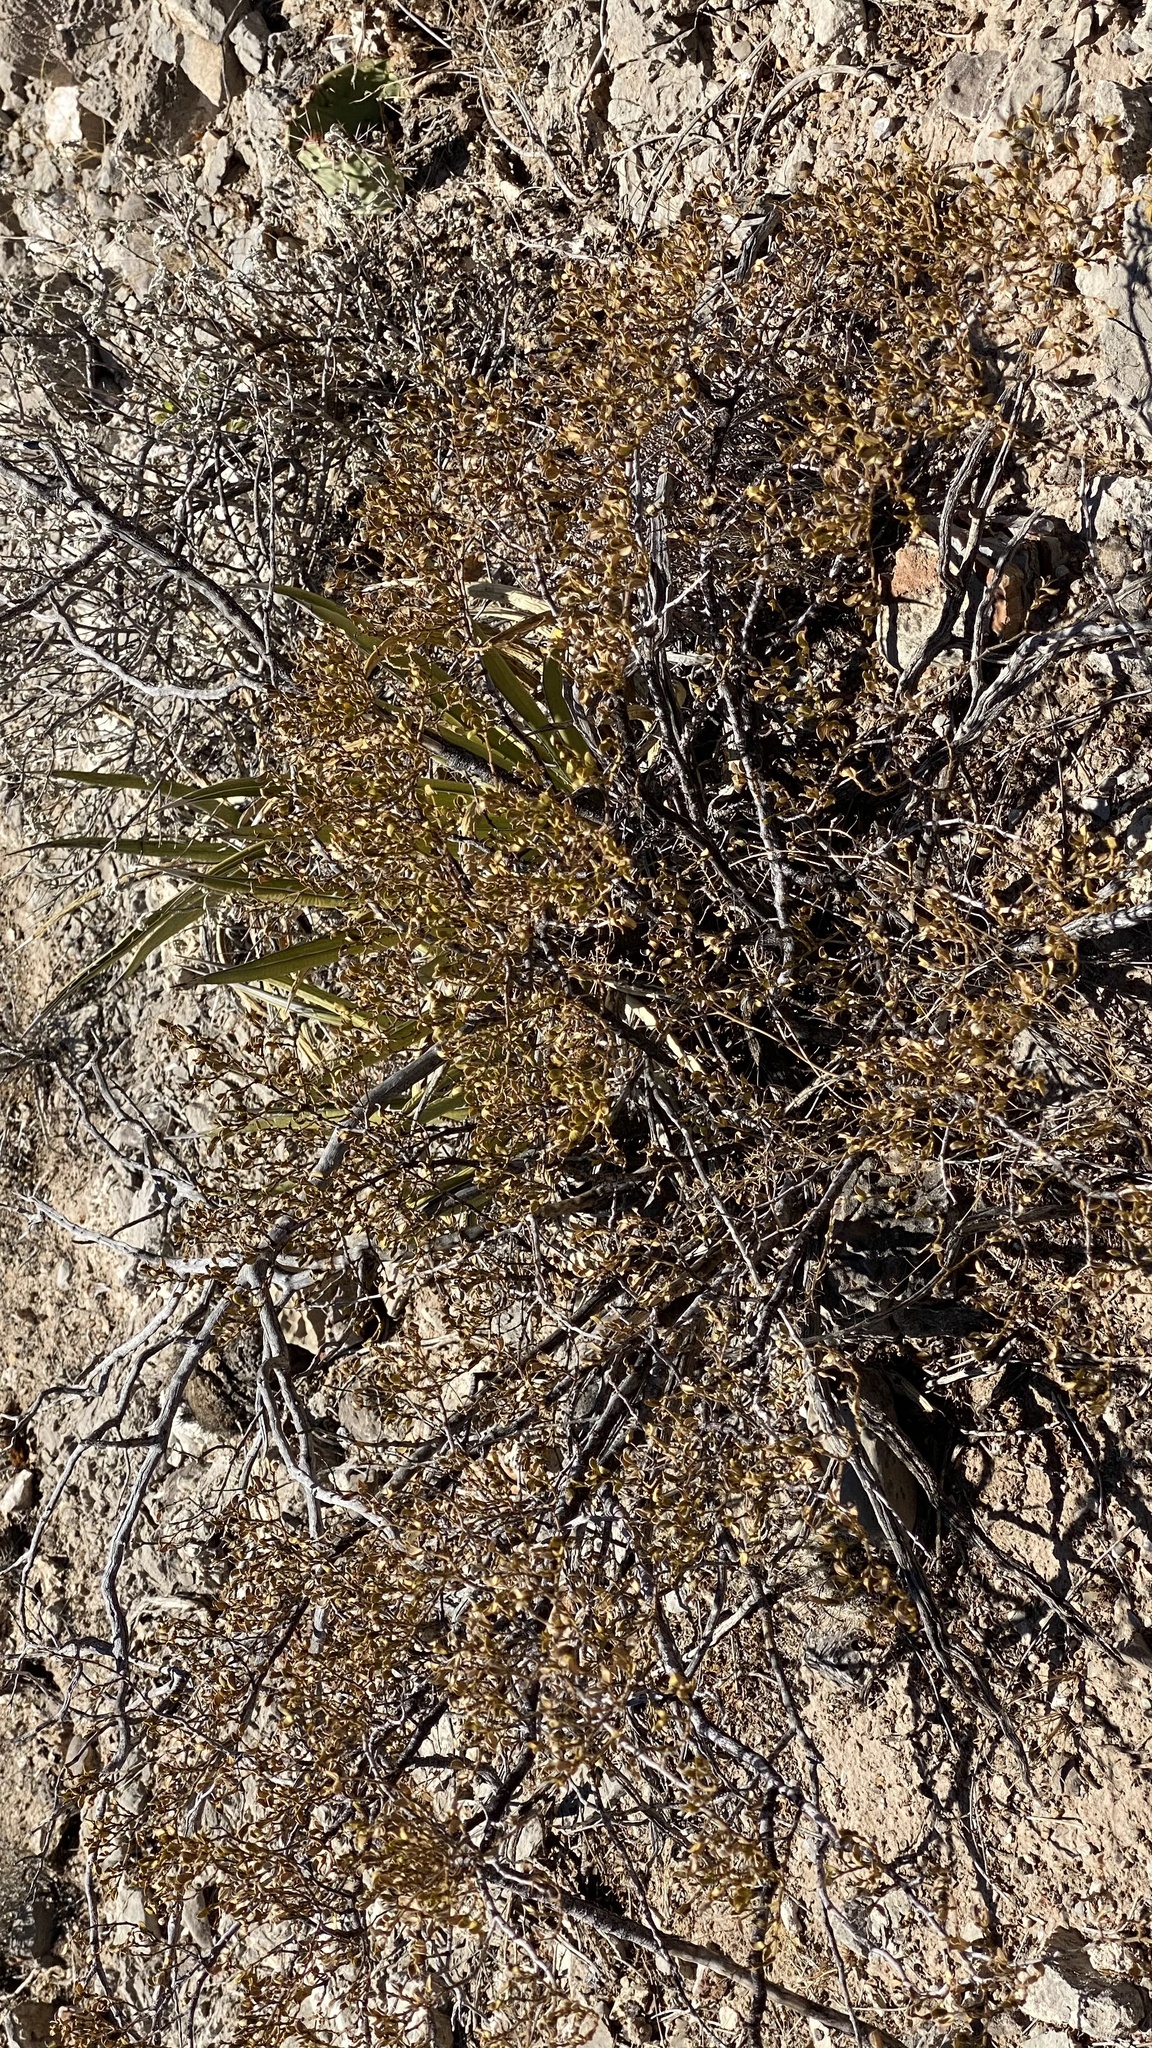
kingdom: Plantae
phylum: Tracheophyta
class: Magnoliopsida
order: Zygophyllales
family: Zygophyllaceae
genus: Larrea
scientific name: Larrea tridentata
